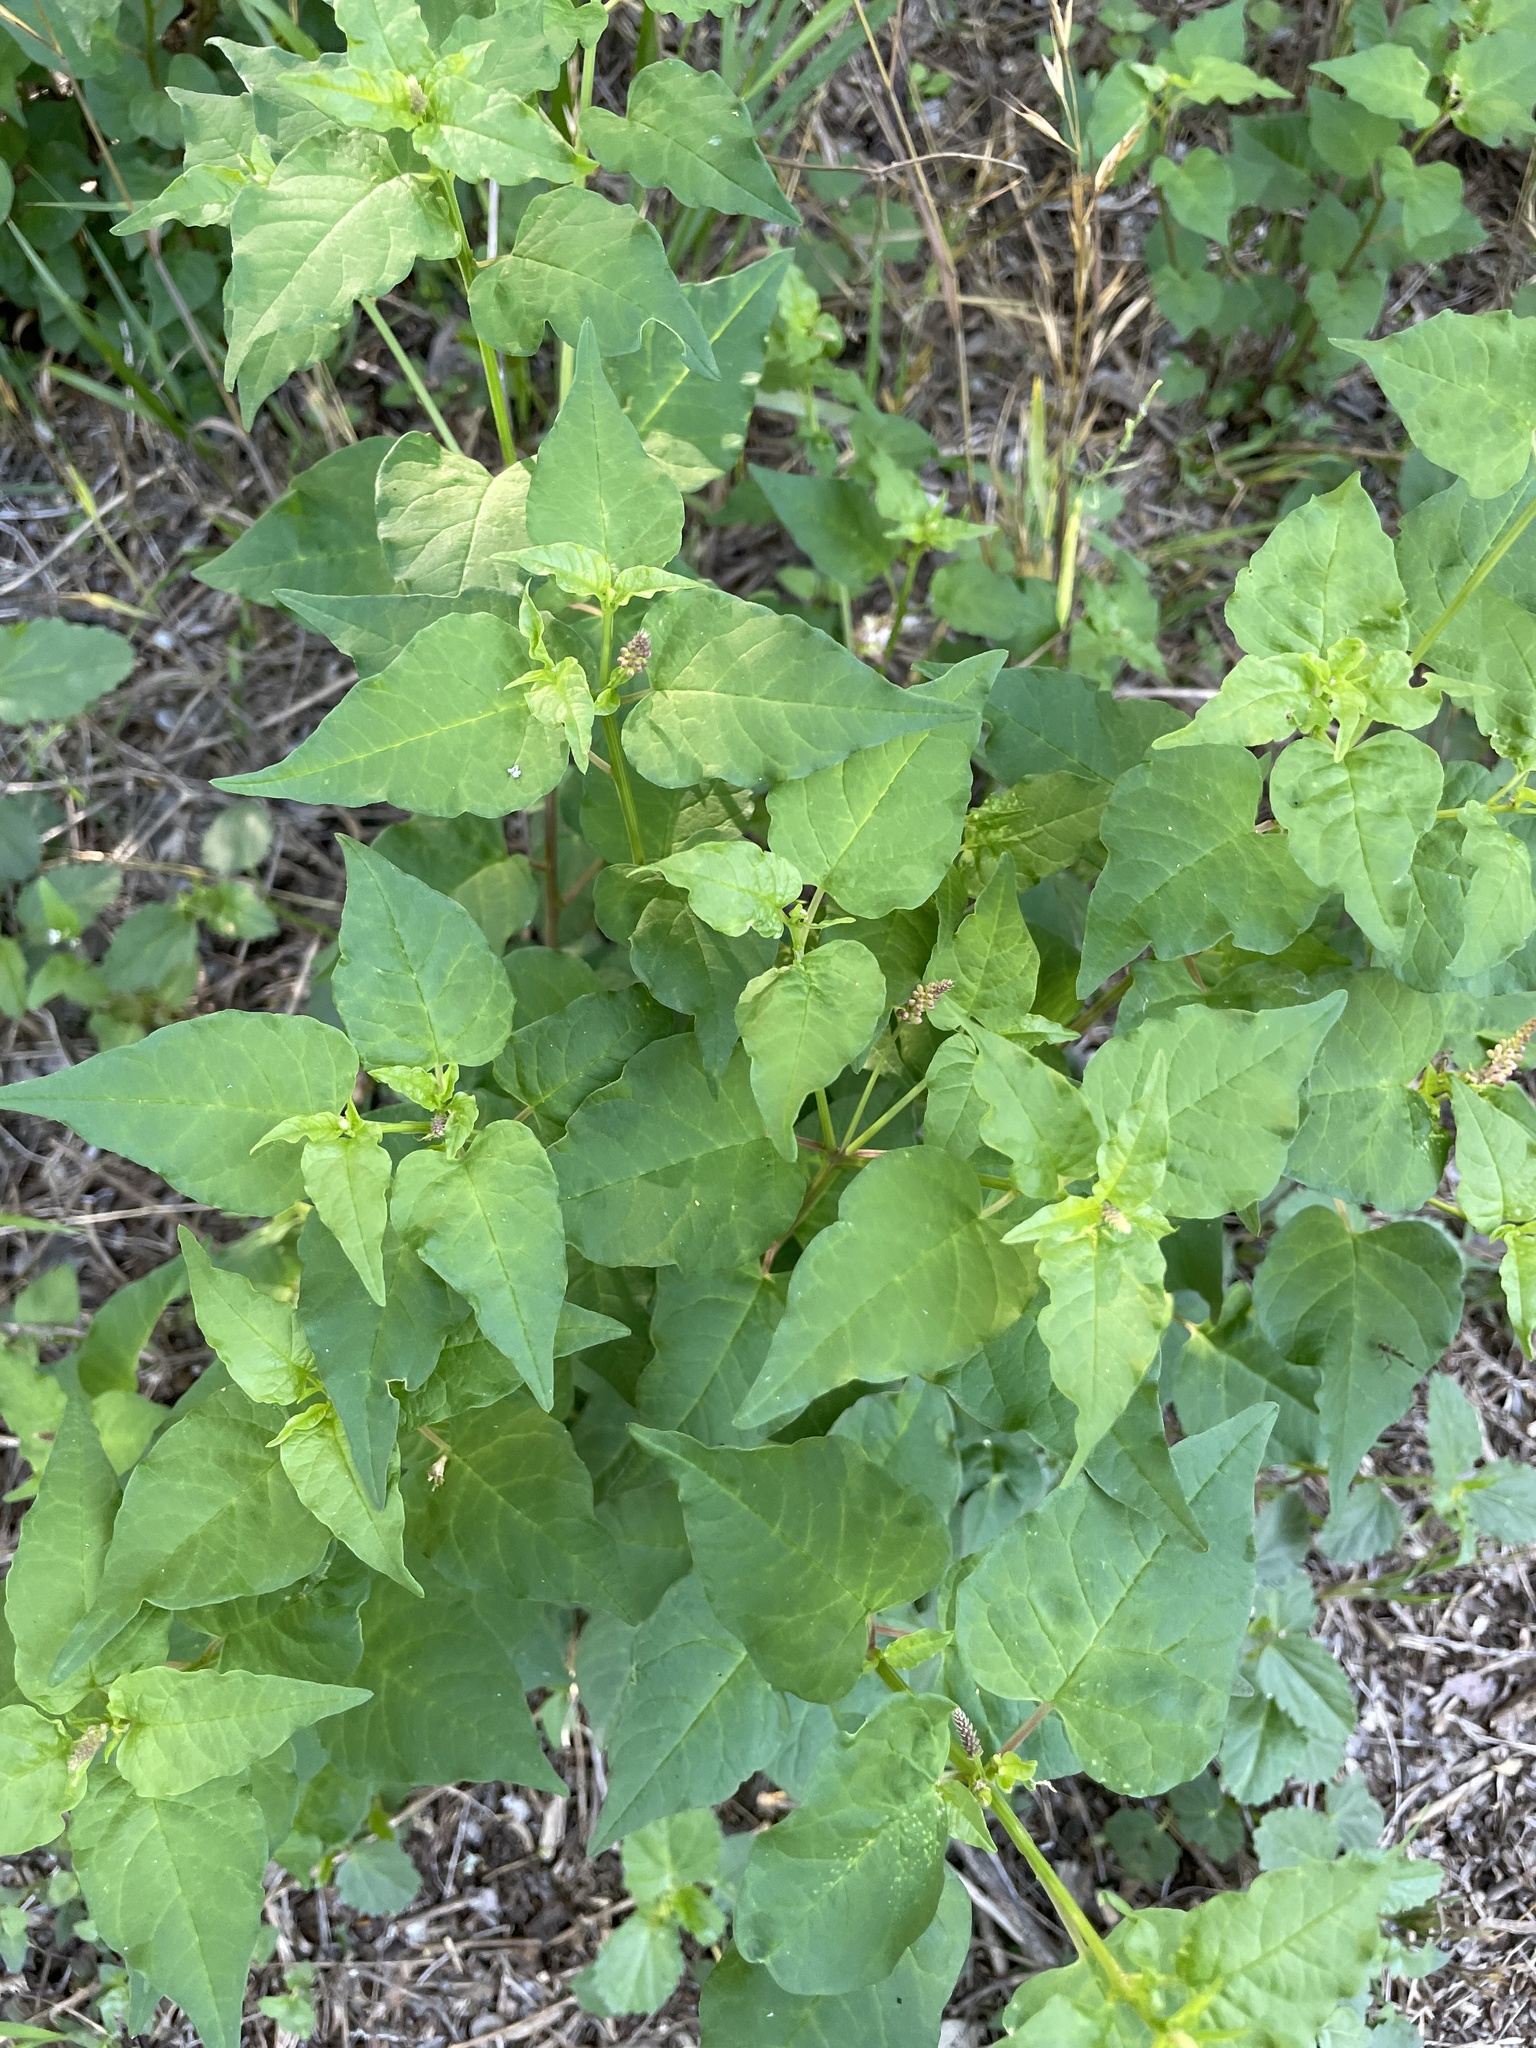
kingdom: Plantae
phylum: Tracheophyta
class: Magnoliopsida
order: Caryophyllales
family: Phytolaccaceae
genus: Rivina
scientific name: Rivina humilis
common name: Rougeplant
